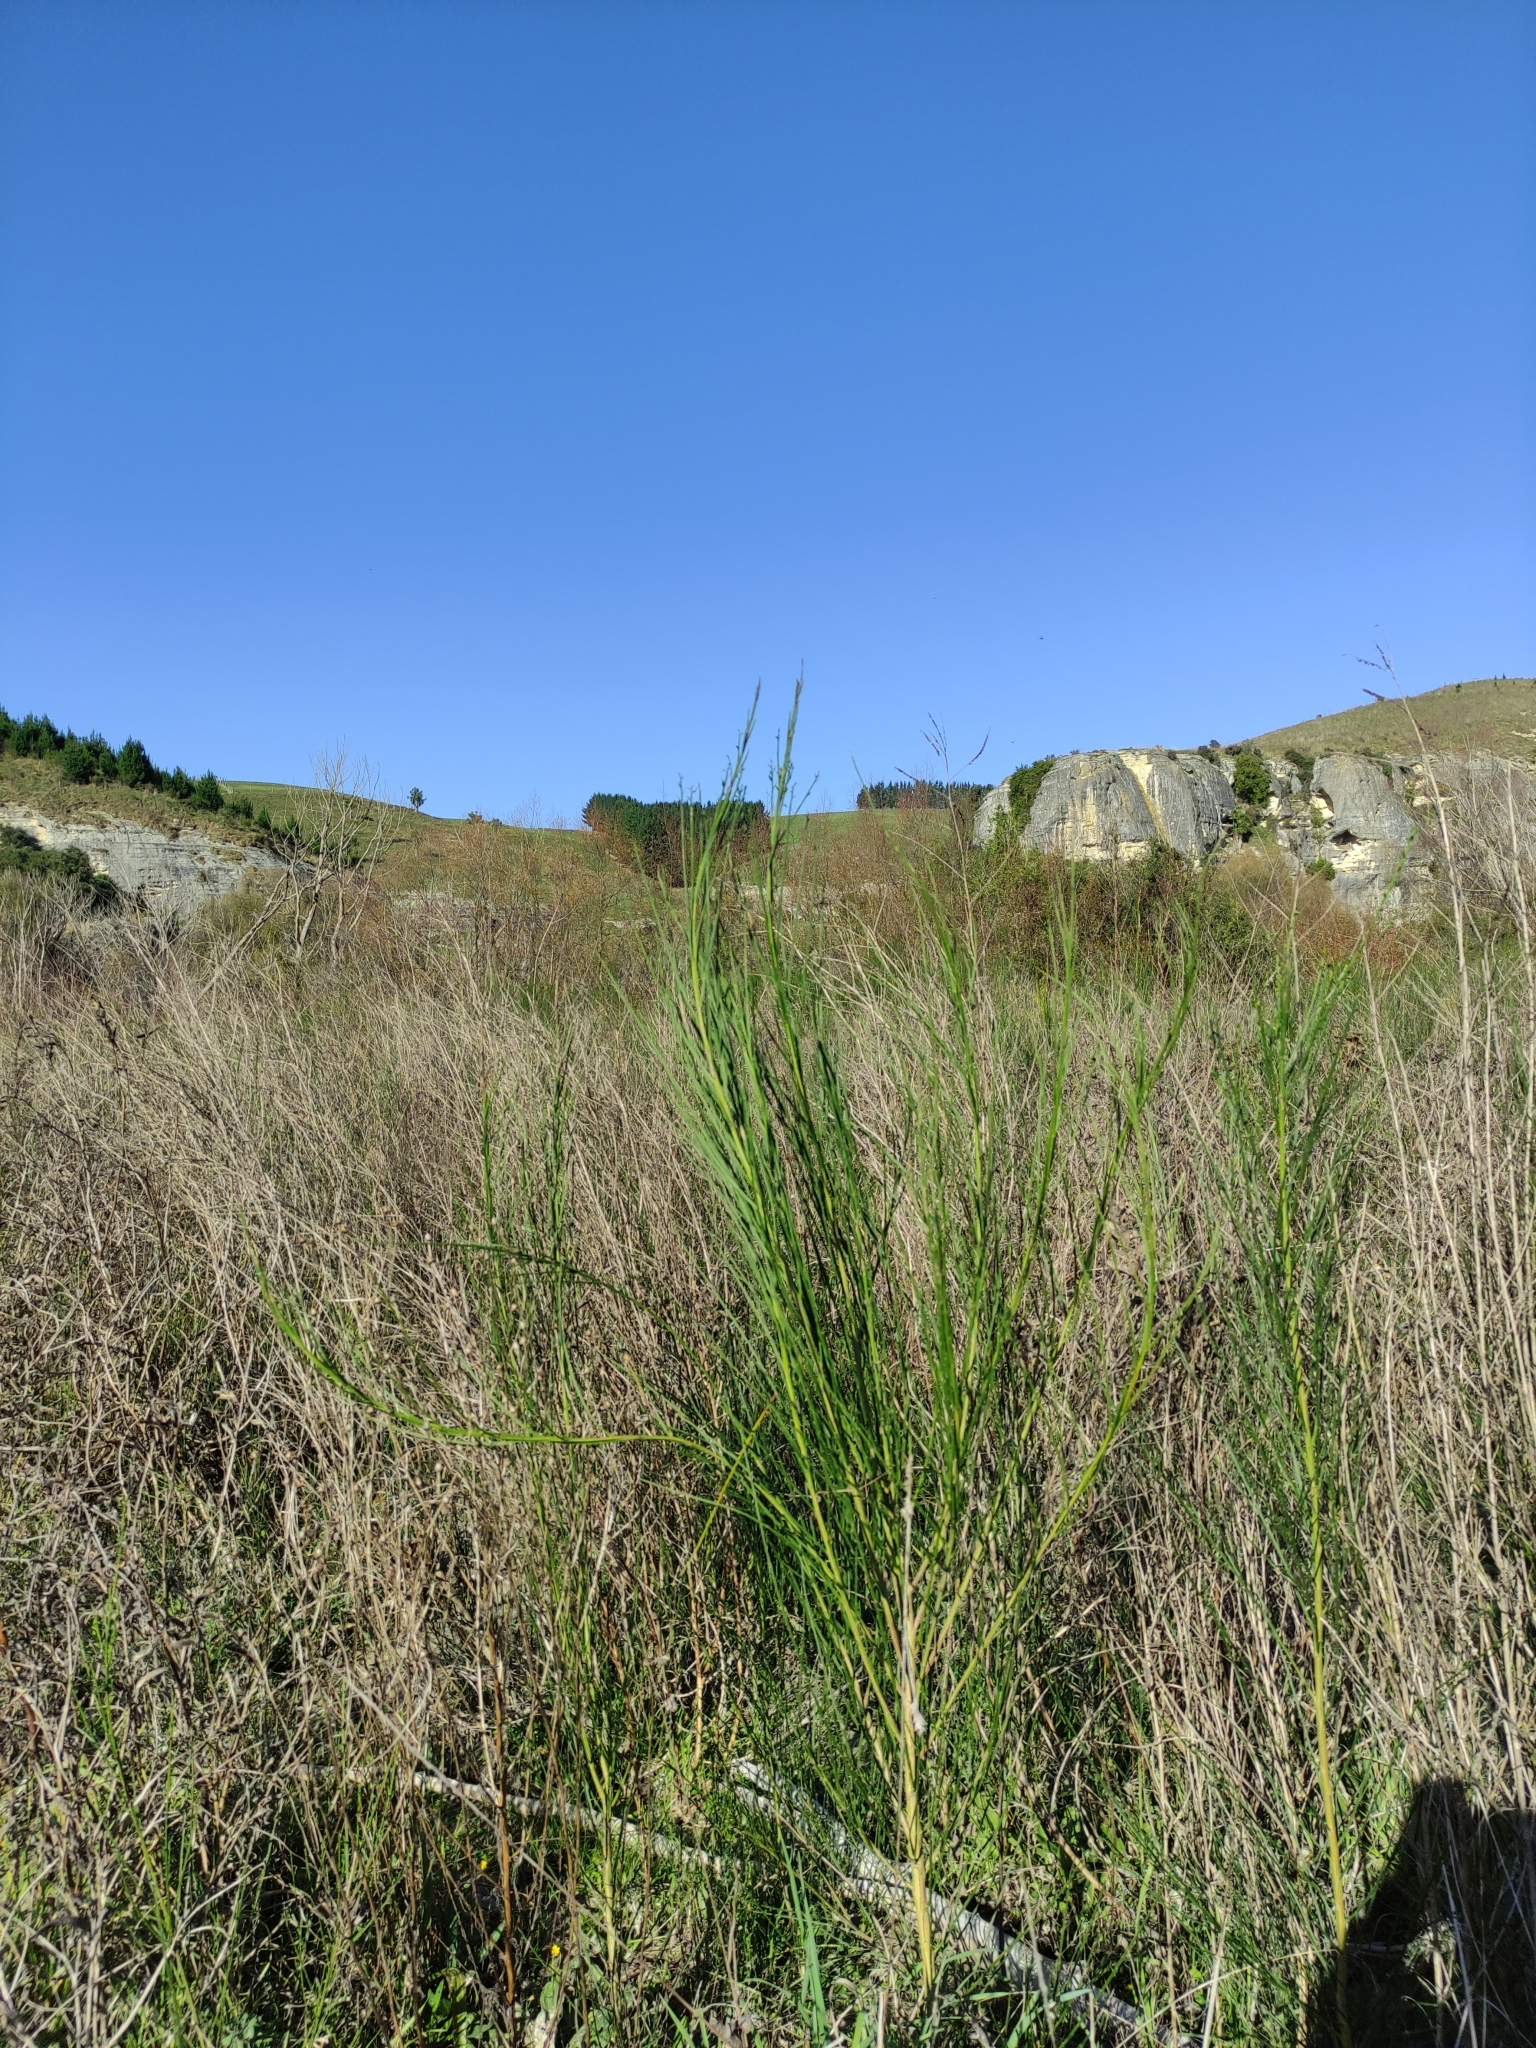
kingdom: Plantae
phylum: Tracheophyta
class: Magnoliopsida
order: Fabales
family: Fabaceae
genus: Cytisus
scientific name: Cytisus scoparius
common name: Scotch broom
